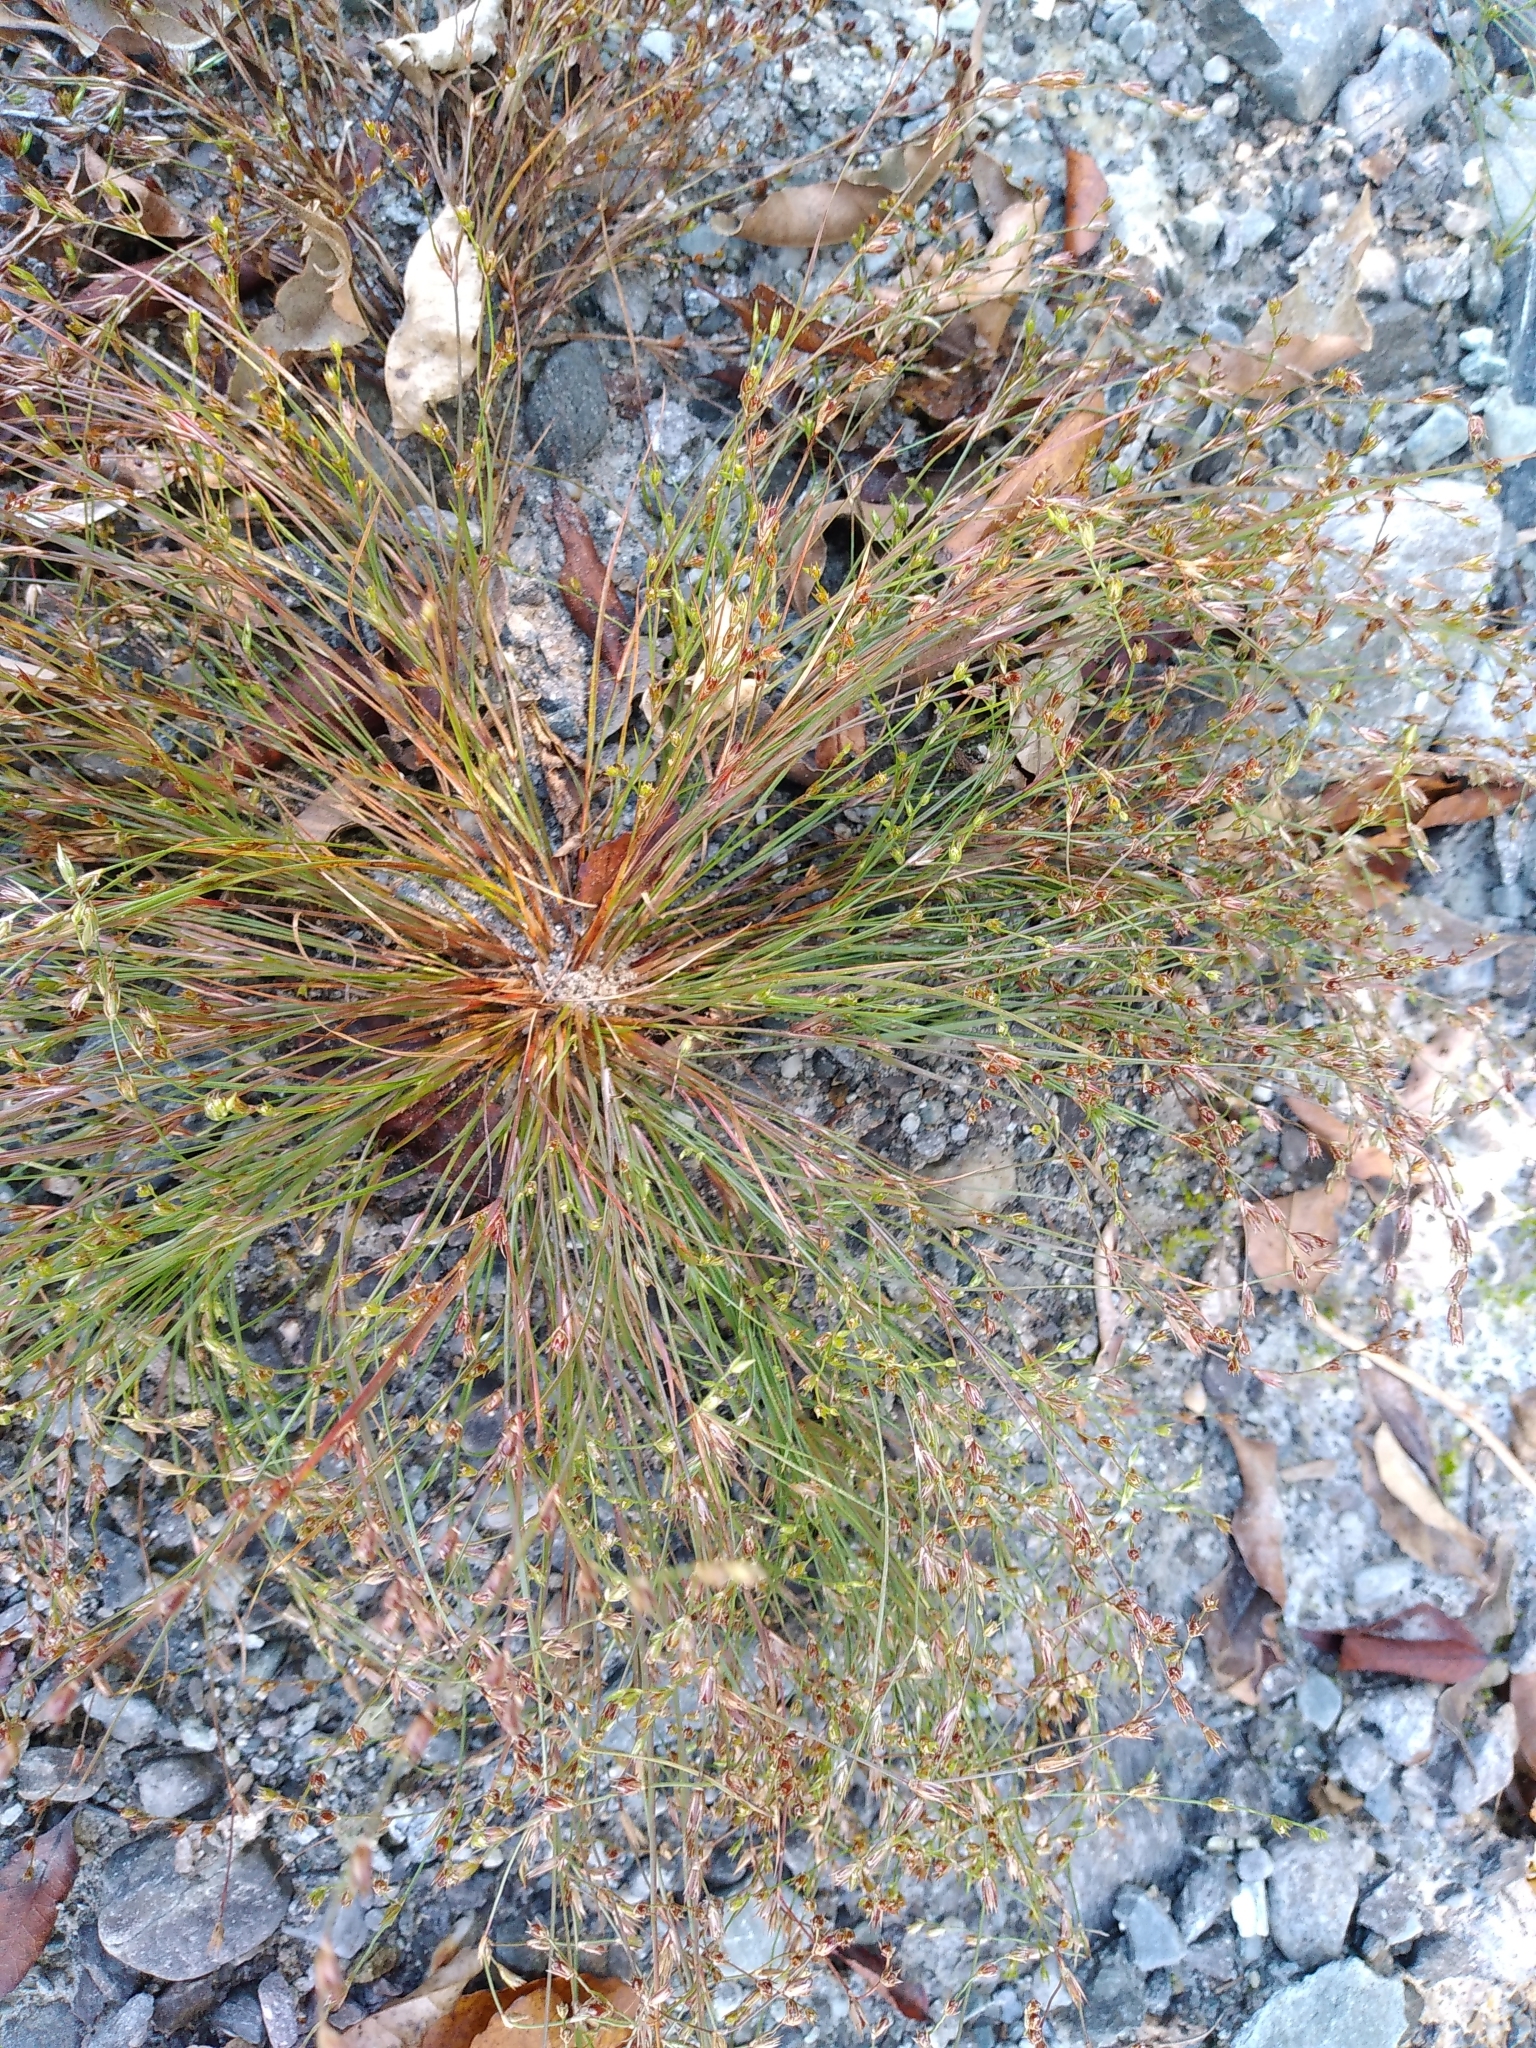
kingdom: Plantae
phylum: Tracheophyta
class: Liliopsida
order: Poales
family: Juncaceae
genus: Juncus
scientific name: Juncus bufonius
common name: Toad rush
